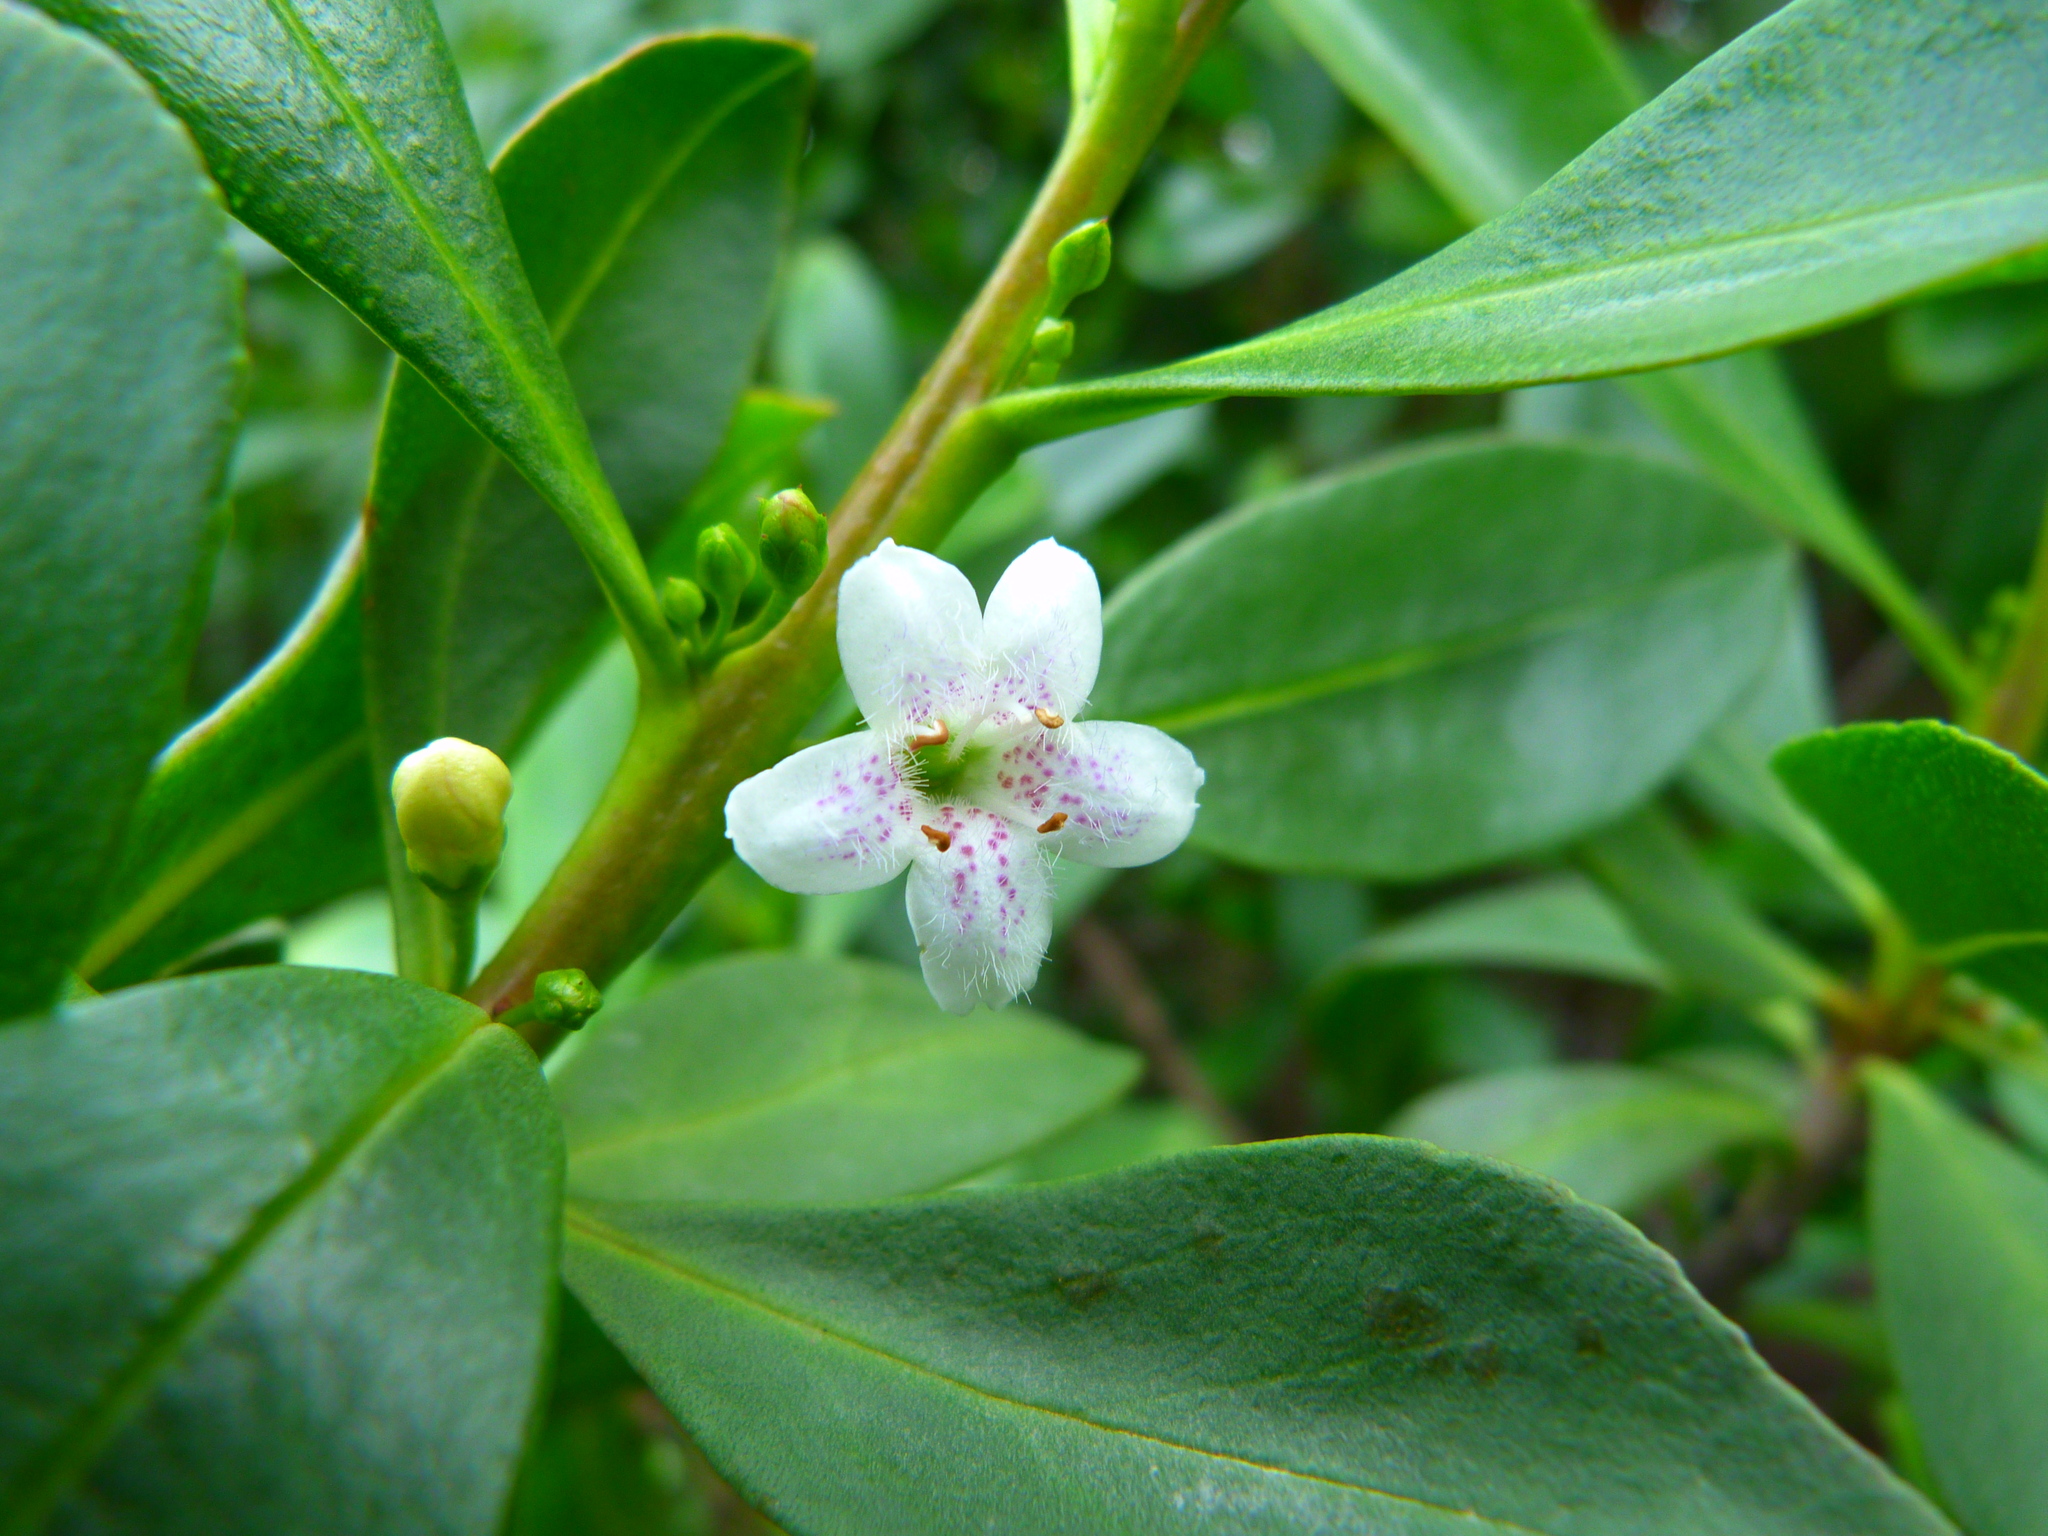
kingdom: Plantae
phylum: Tracheophyta
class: Magnoliopsida
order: Lamiales
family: Scrophulariaceae
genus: Myoporum
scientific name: Myoporum laetum
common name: Ngaio tree
